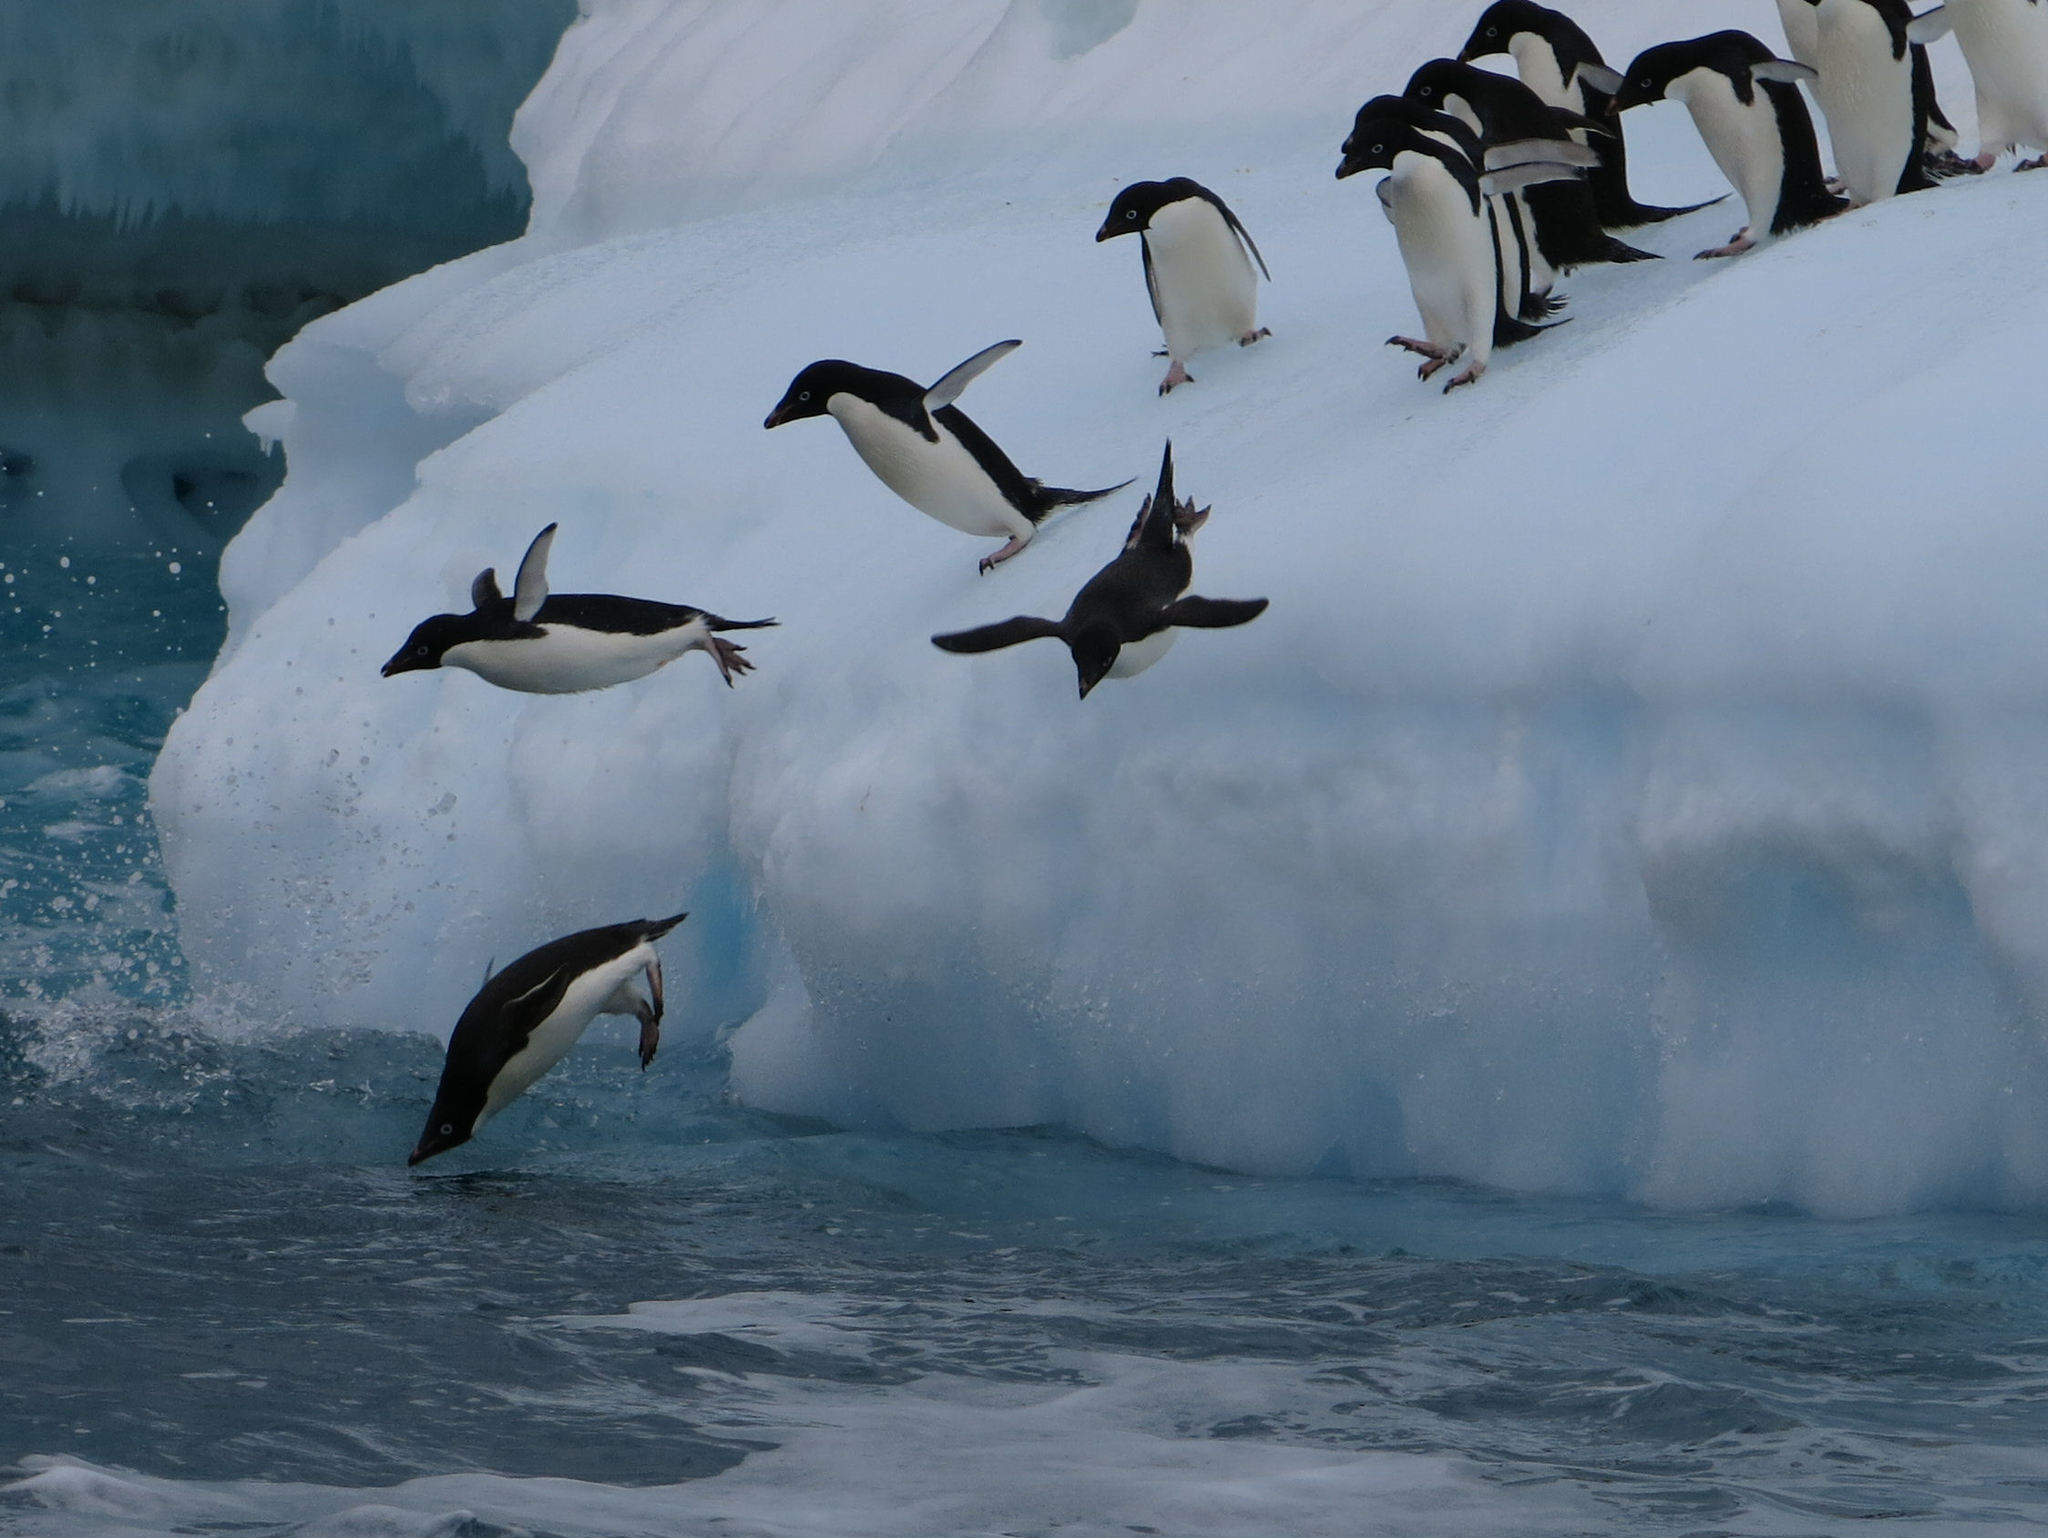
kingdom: Animalia
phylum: Chordata
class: Aves
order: Sphenisciformes
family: Spheniscidae
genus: Pygoscelis
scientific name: Pygoscelis adeliae
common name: Adelie penguin
